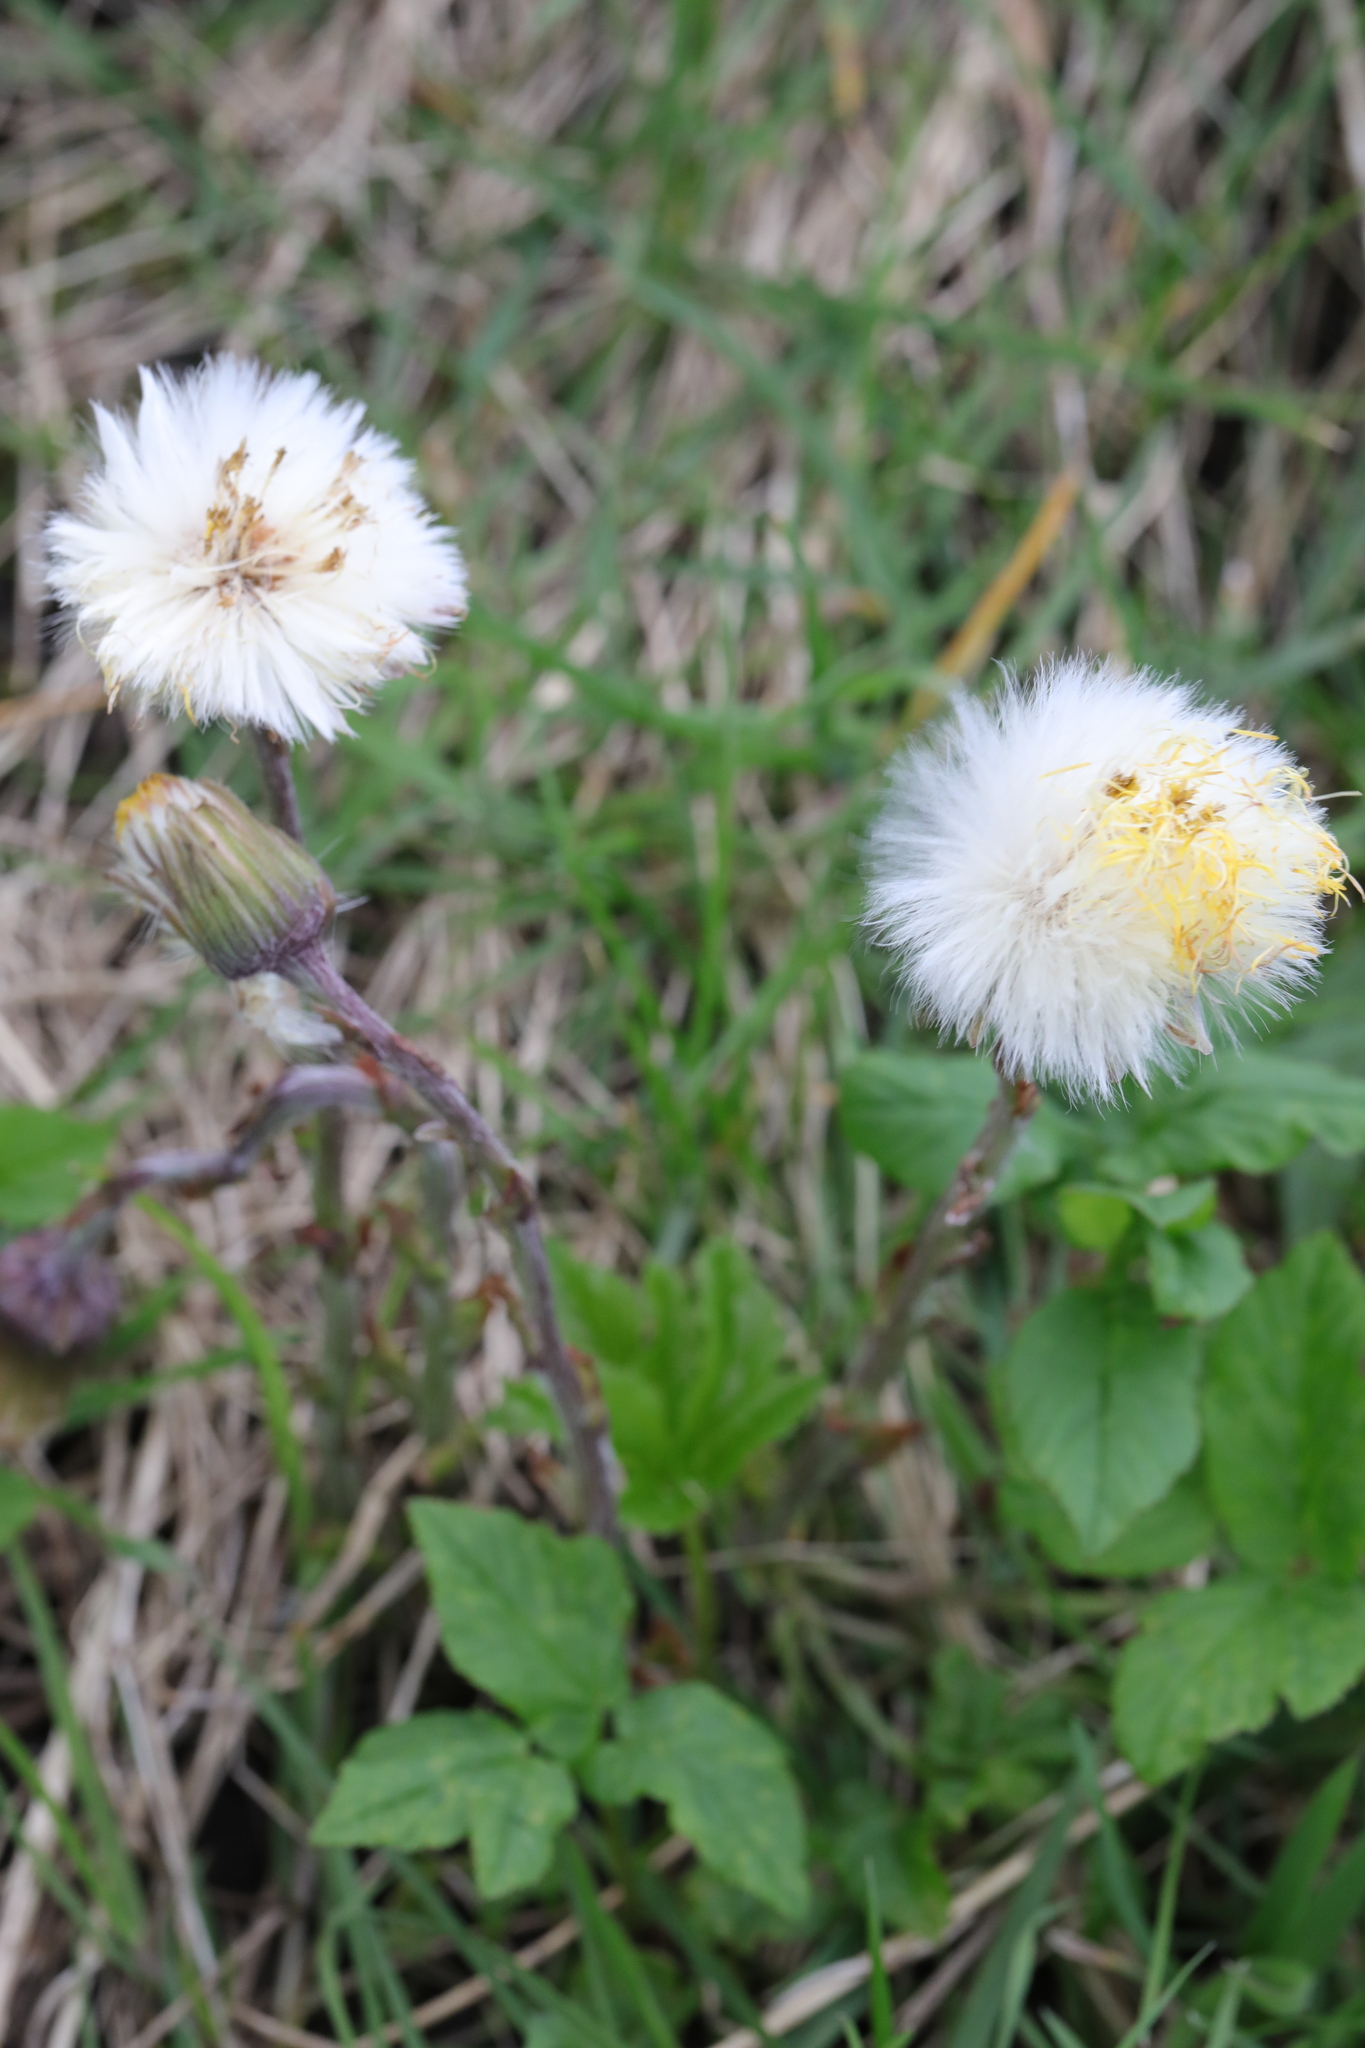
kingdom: Plantae
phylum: Tracheophyta
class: Magnoliopsida
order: Asterales
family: Asteraceae
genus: Tussilago
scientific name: Tussilago farfara
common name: Coltsfoot
